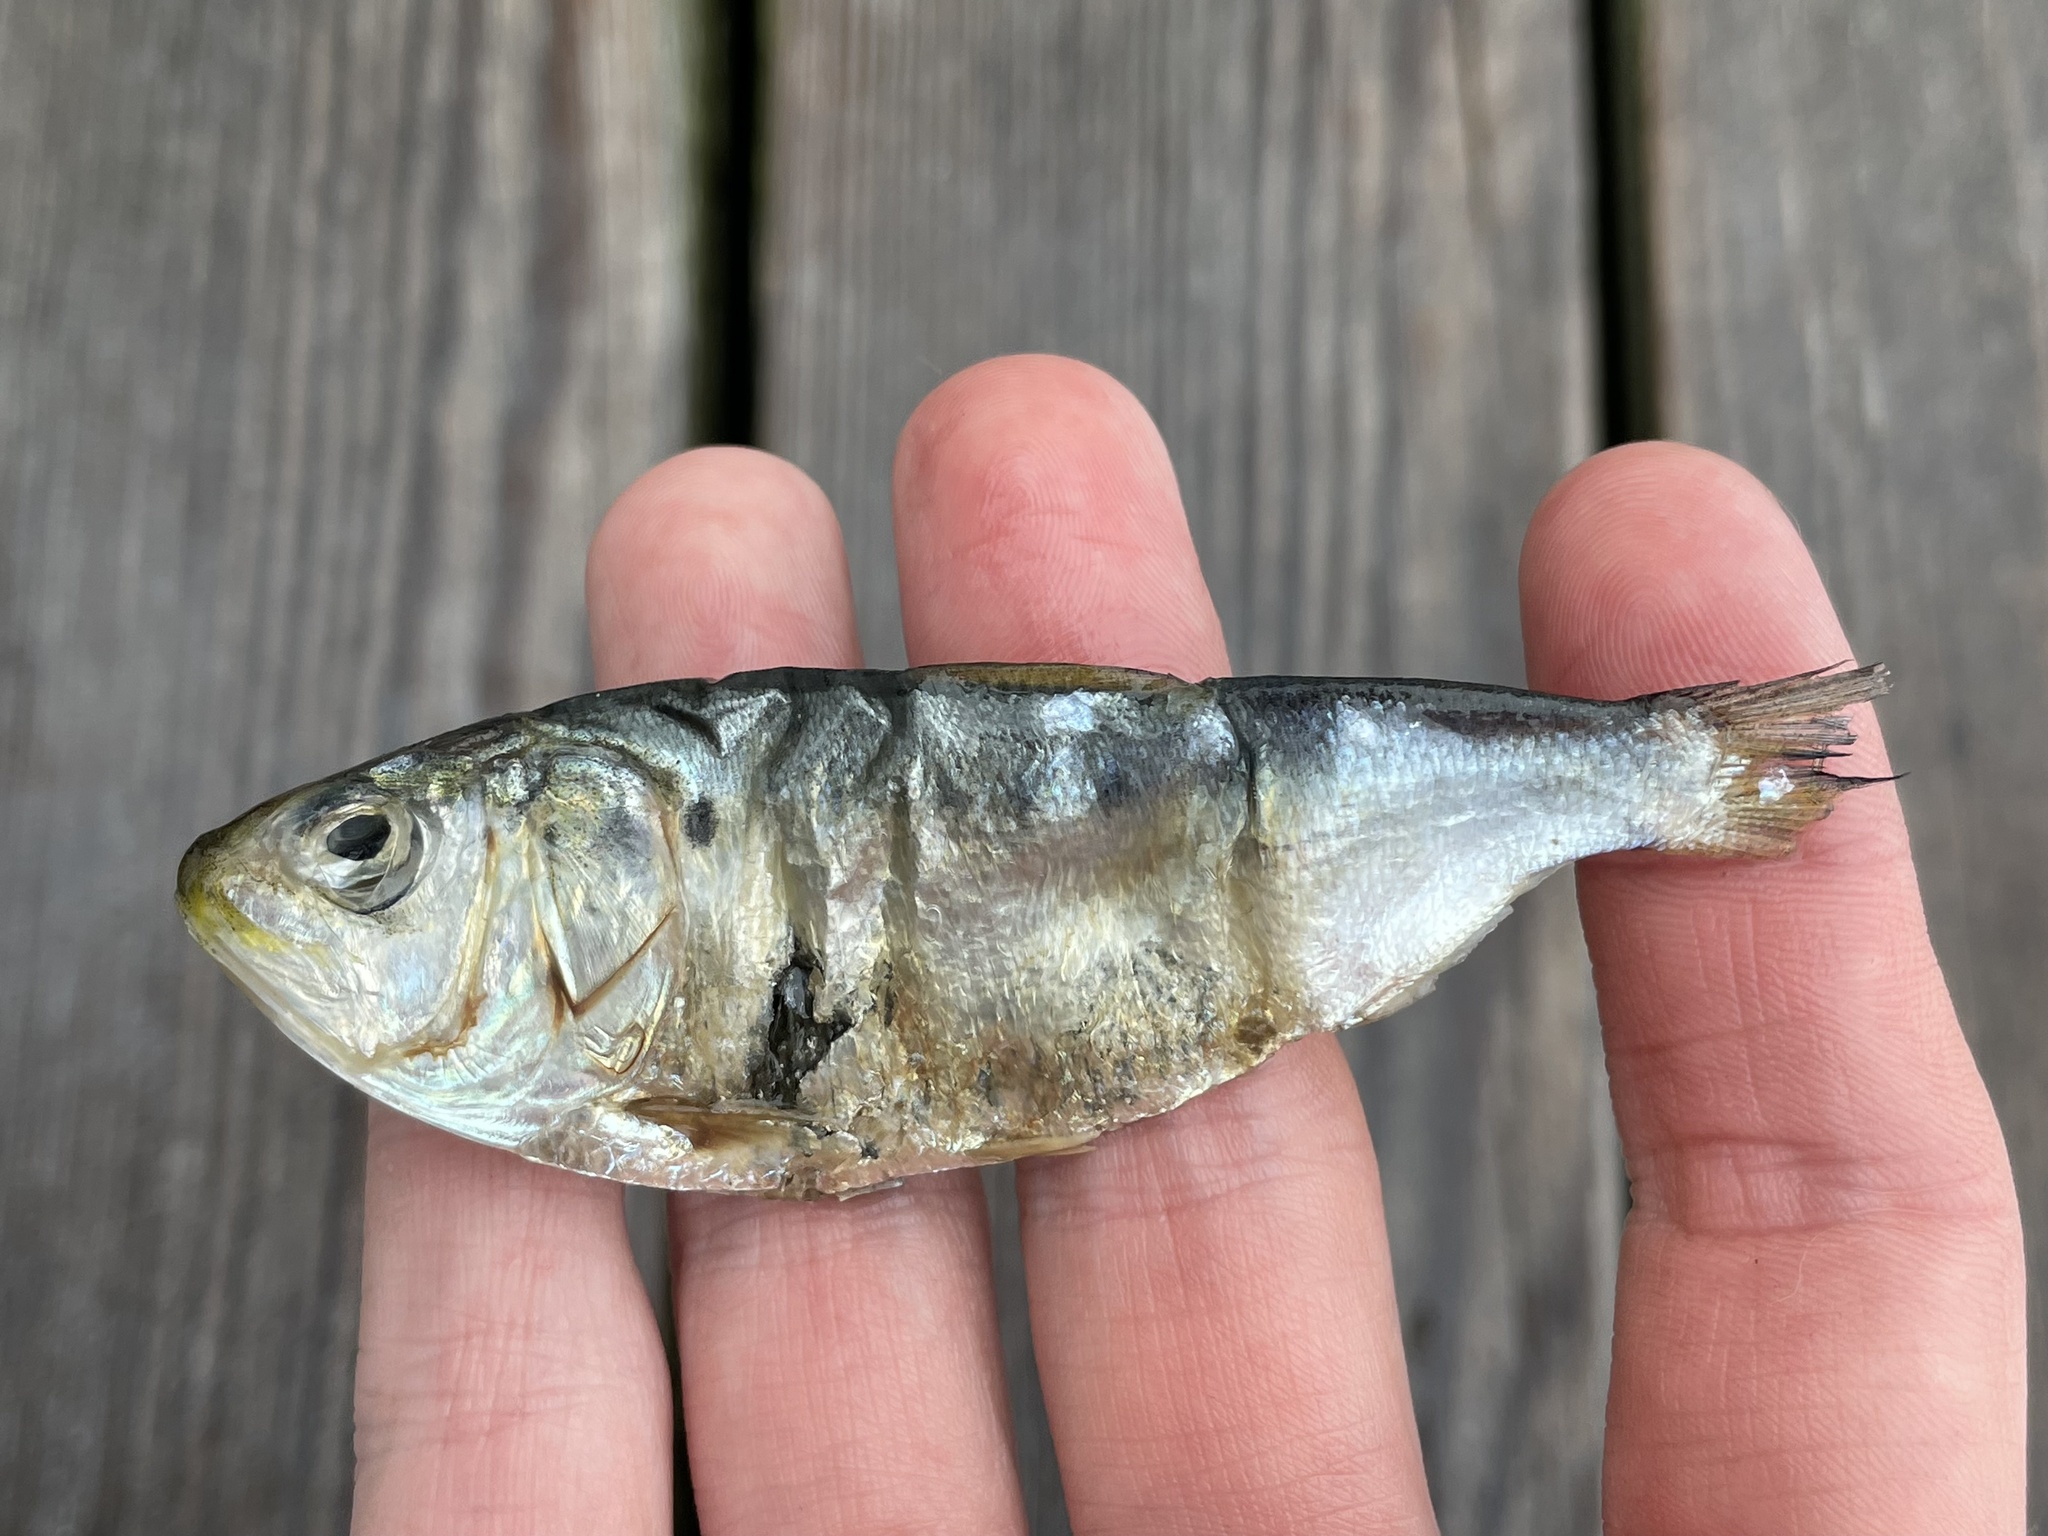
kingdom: Animalia
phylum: Chordata
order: Clupeiformes
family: Clupeidae
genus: Brevoortia
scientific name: Brevoortia tyrannus
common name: Atlantic menhaden
